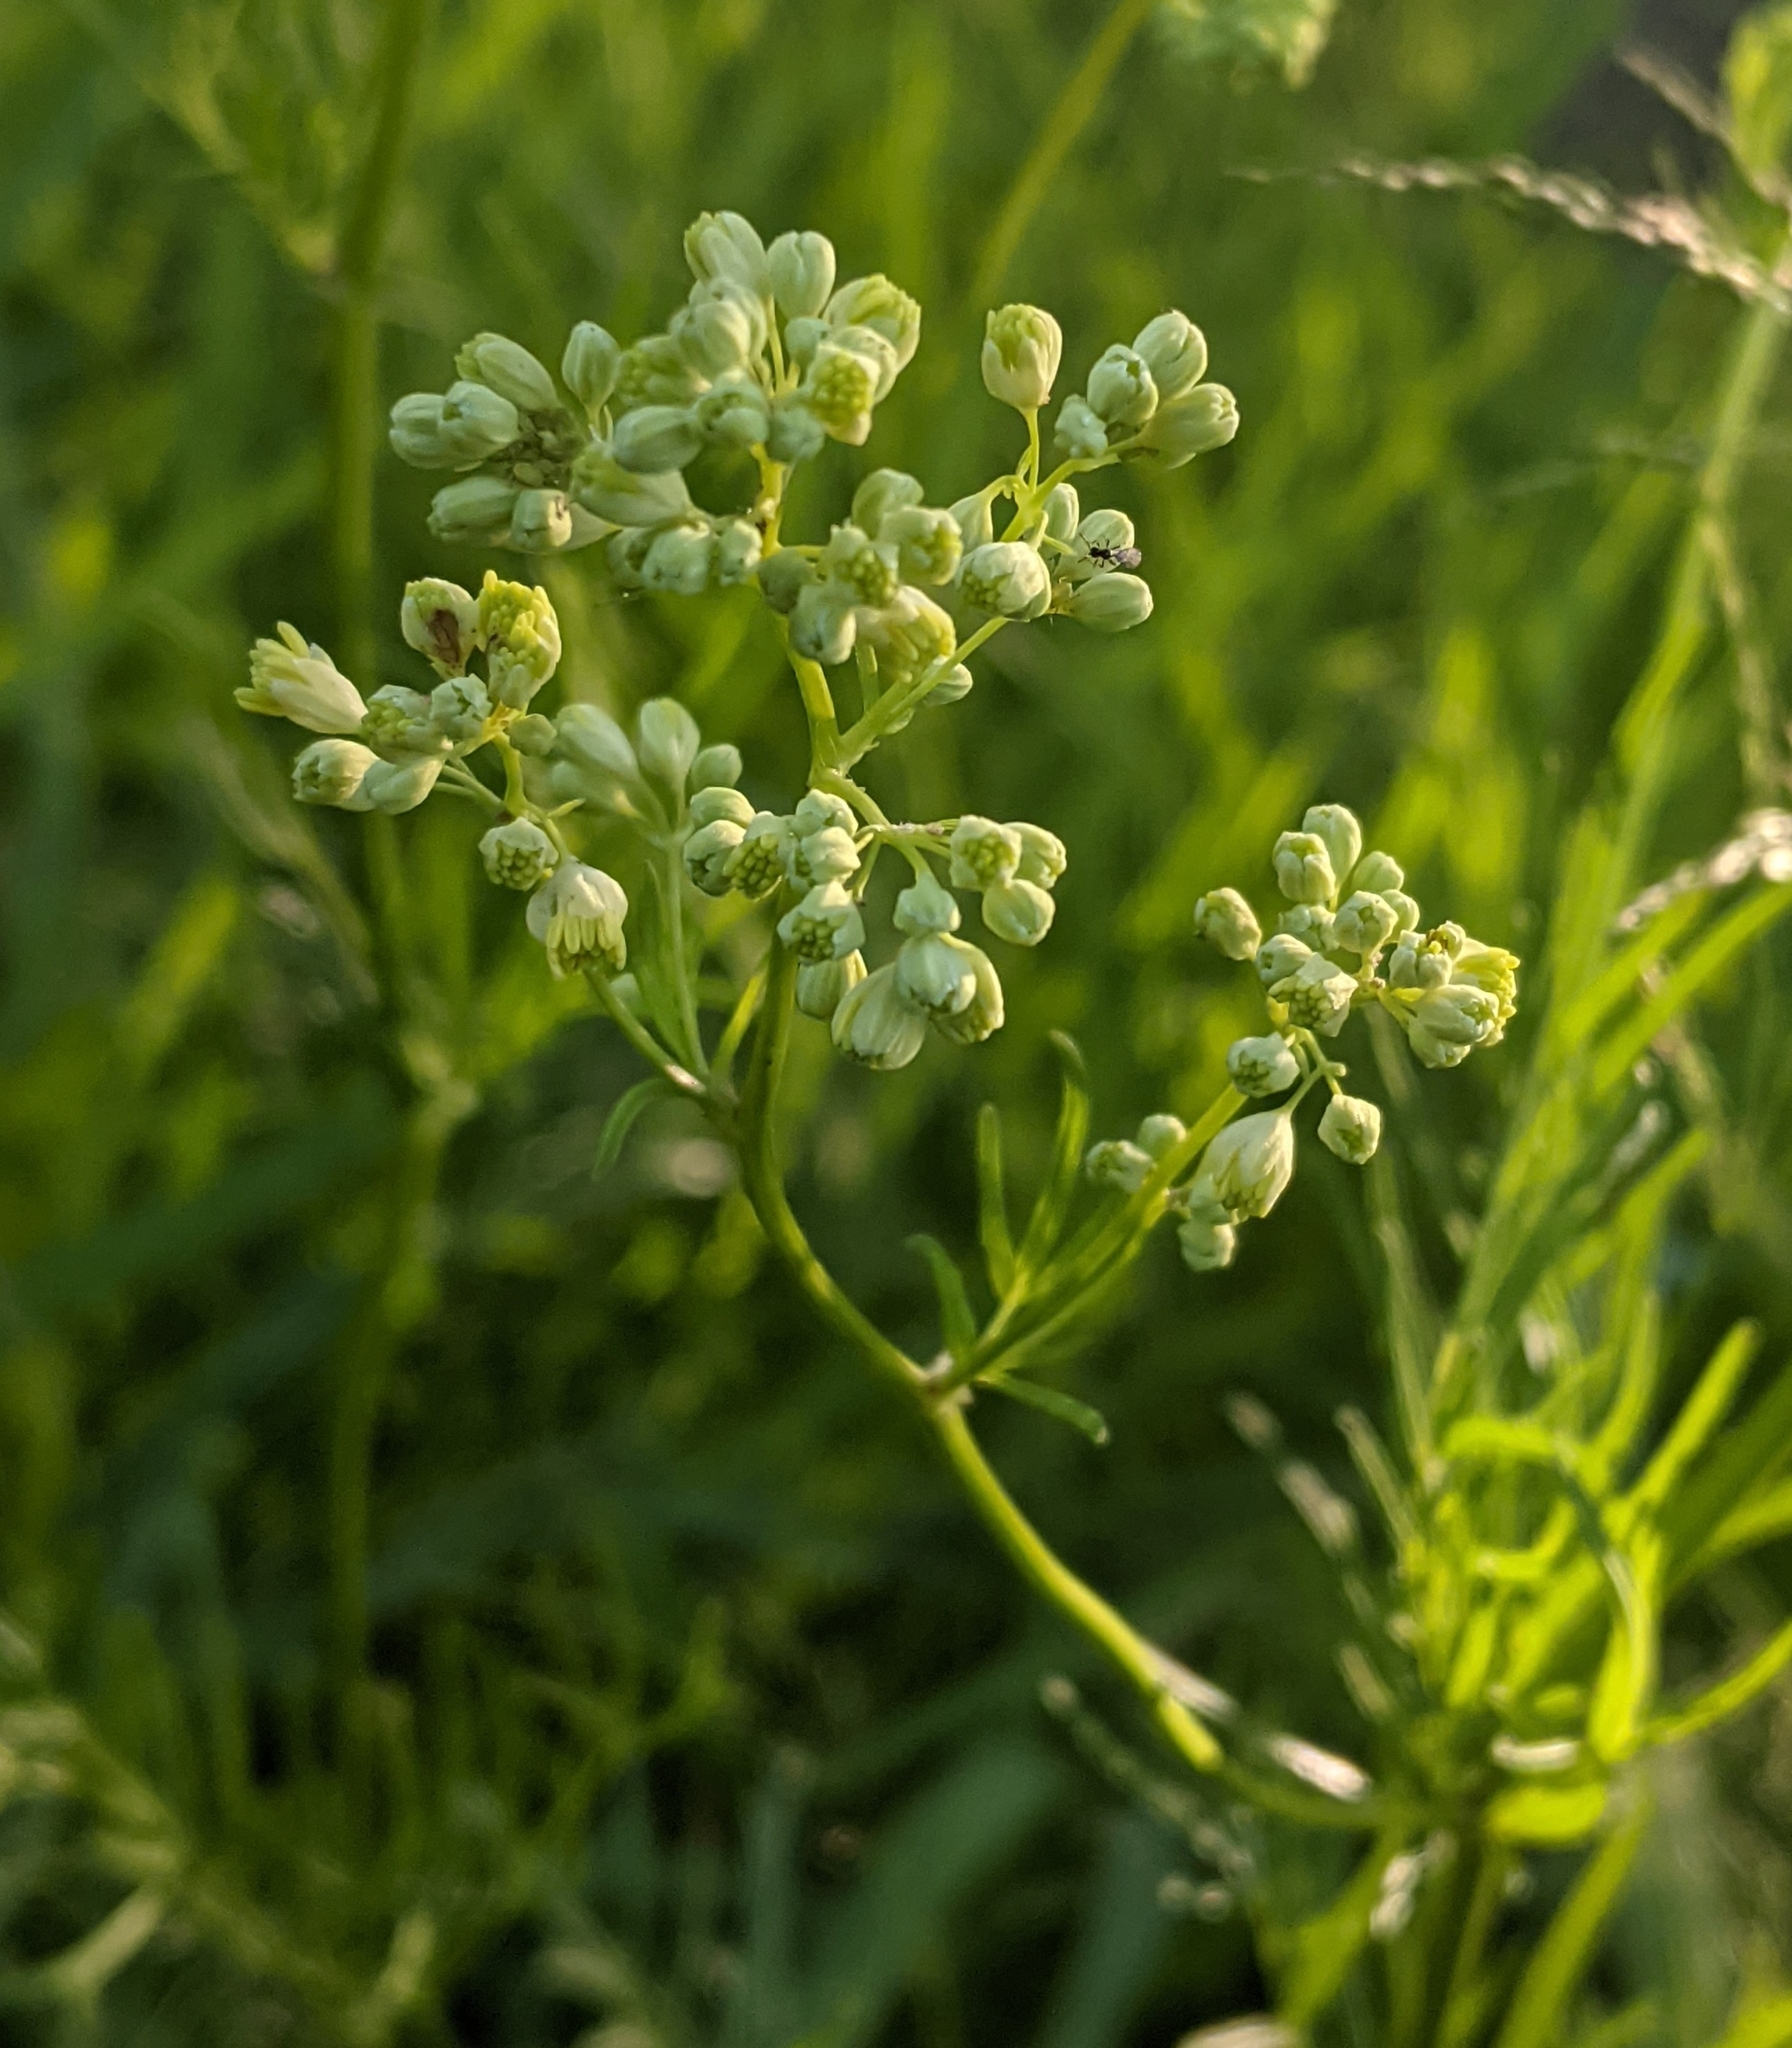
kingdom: Plantae
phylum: Tracheophyta
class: Magnoliopsida
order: Ranunculales
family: Ranunculaceae
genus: Thalictrum
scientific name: Thalictrum lucidum
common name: Shining meadow-rue
